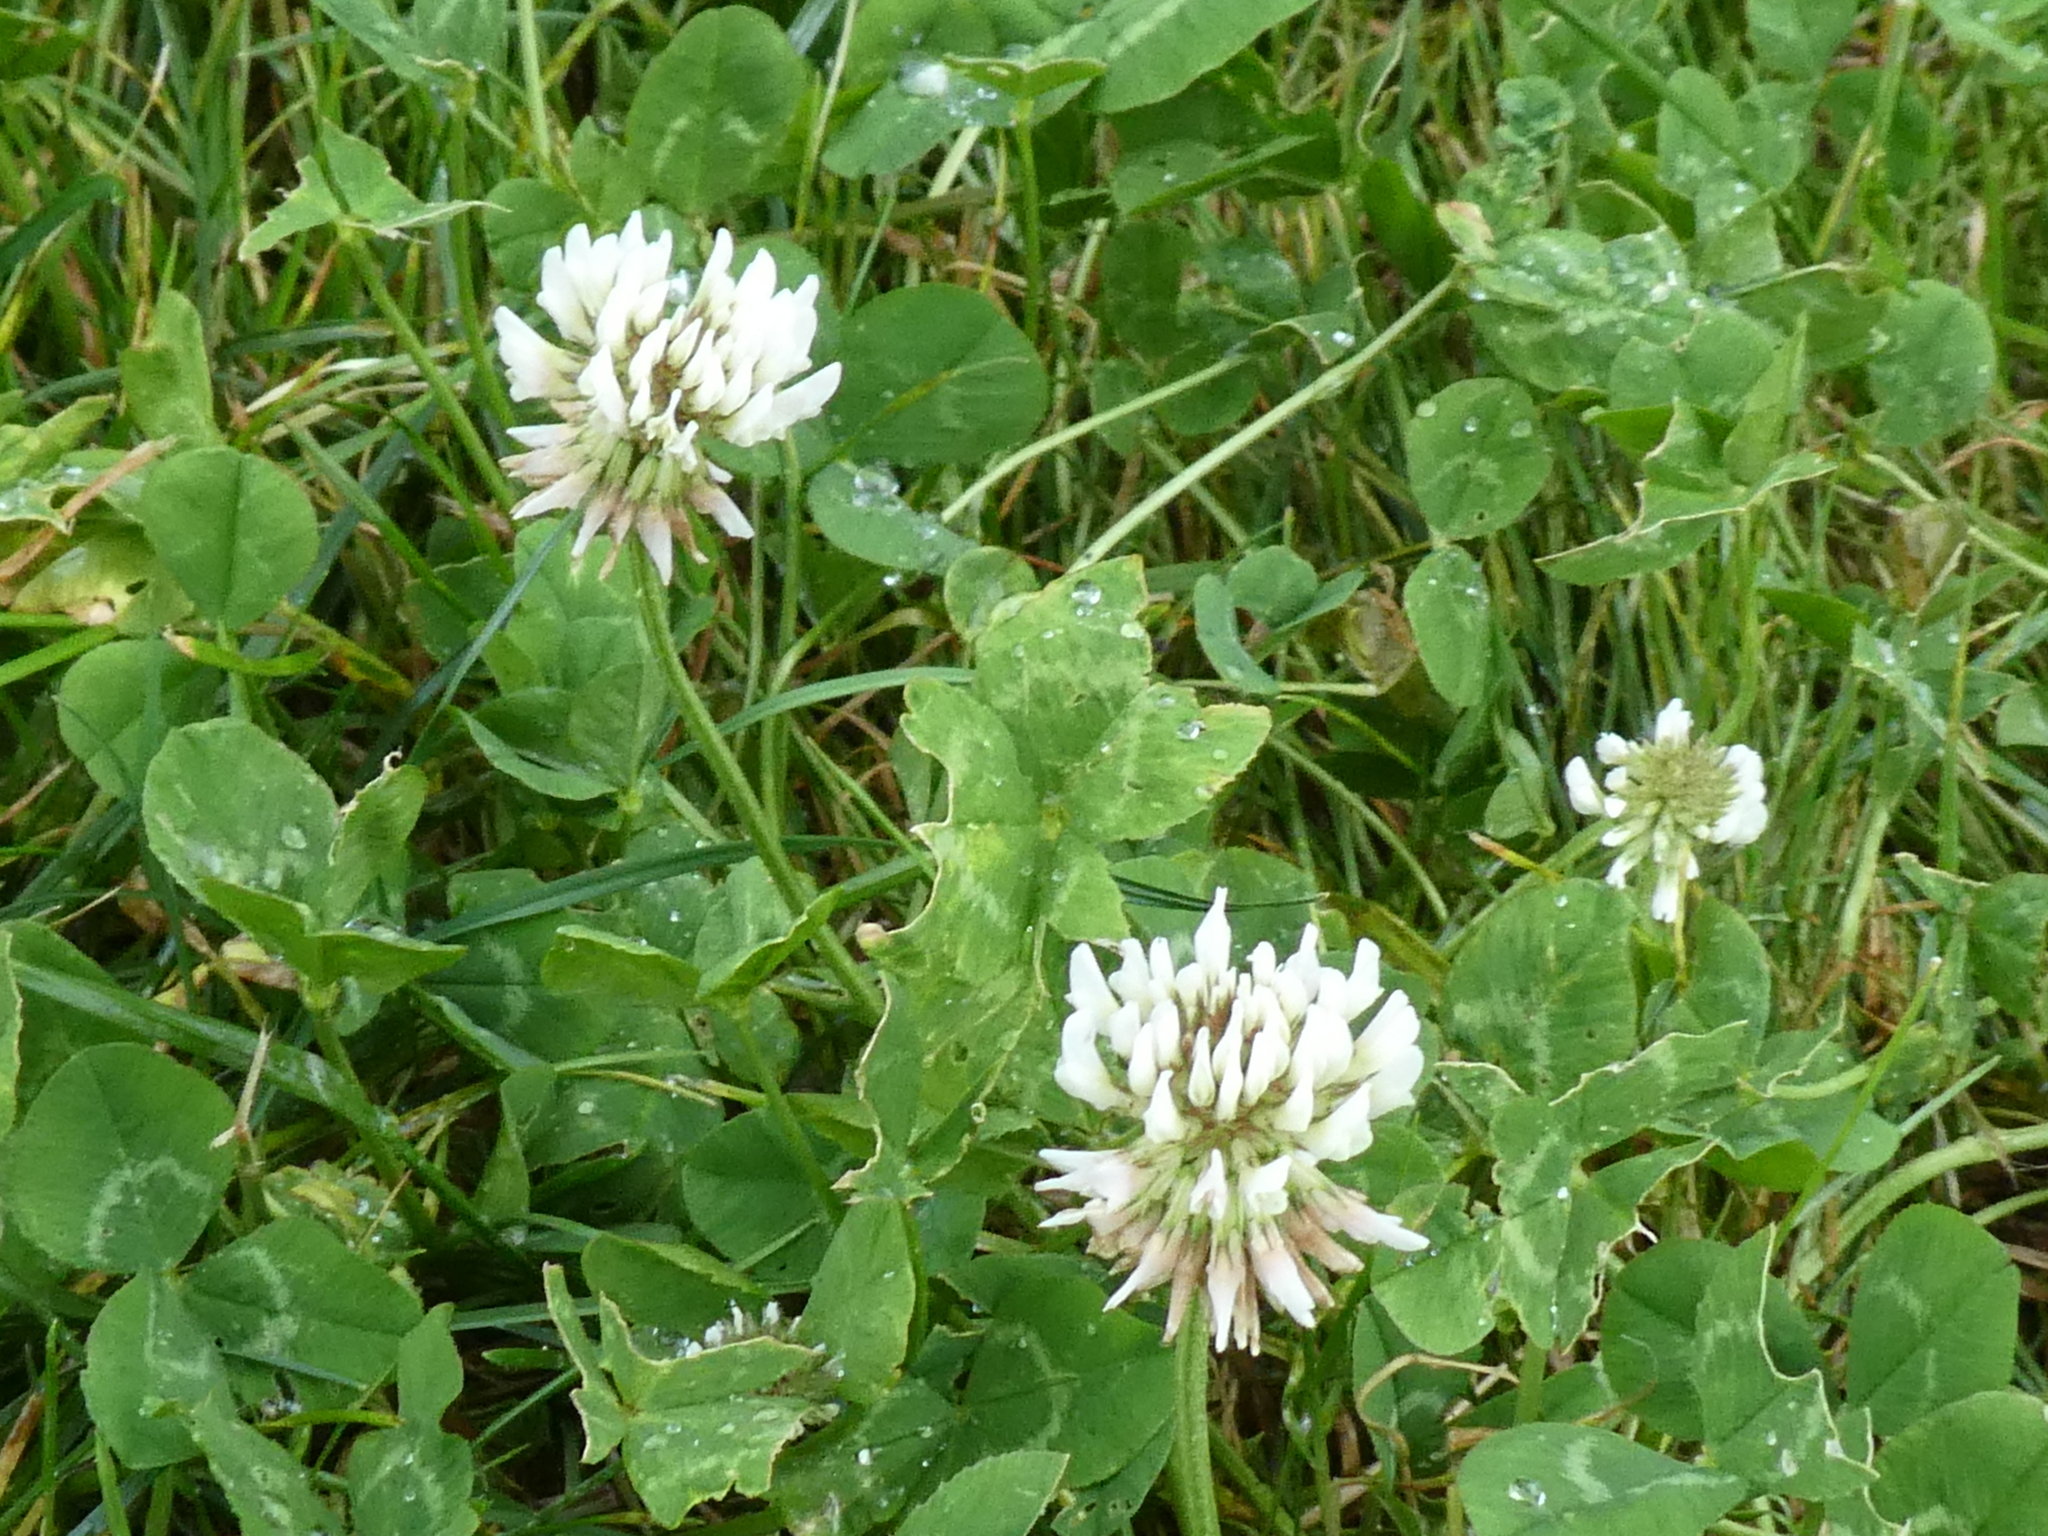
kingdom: Plantae
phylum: Tracheophyta
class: Magnoliopsida
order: Fabales
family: Fabaceae
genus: Trifolium
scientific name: Trifolium repens
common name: White clover
